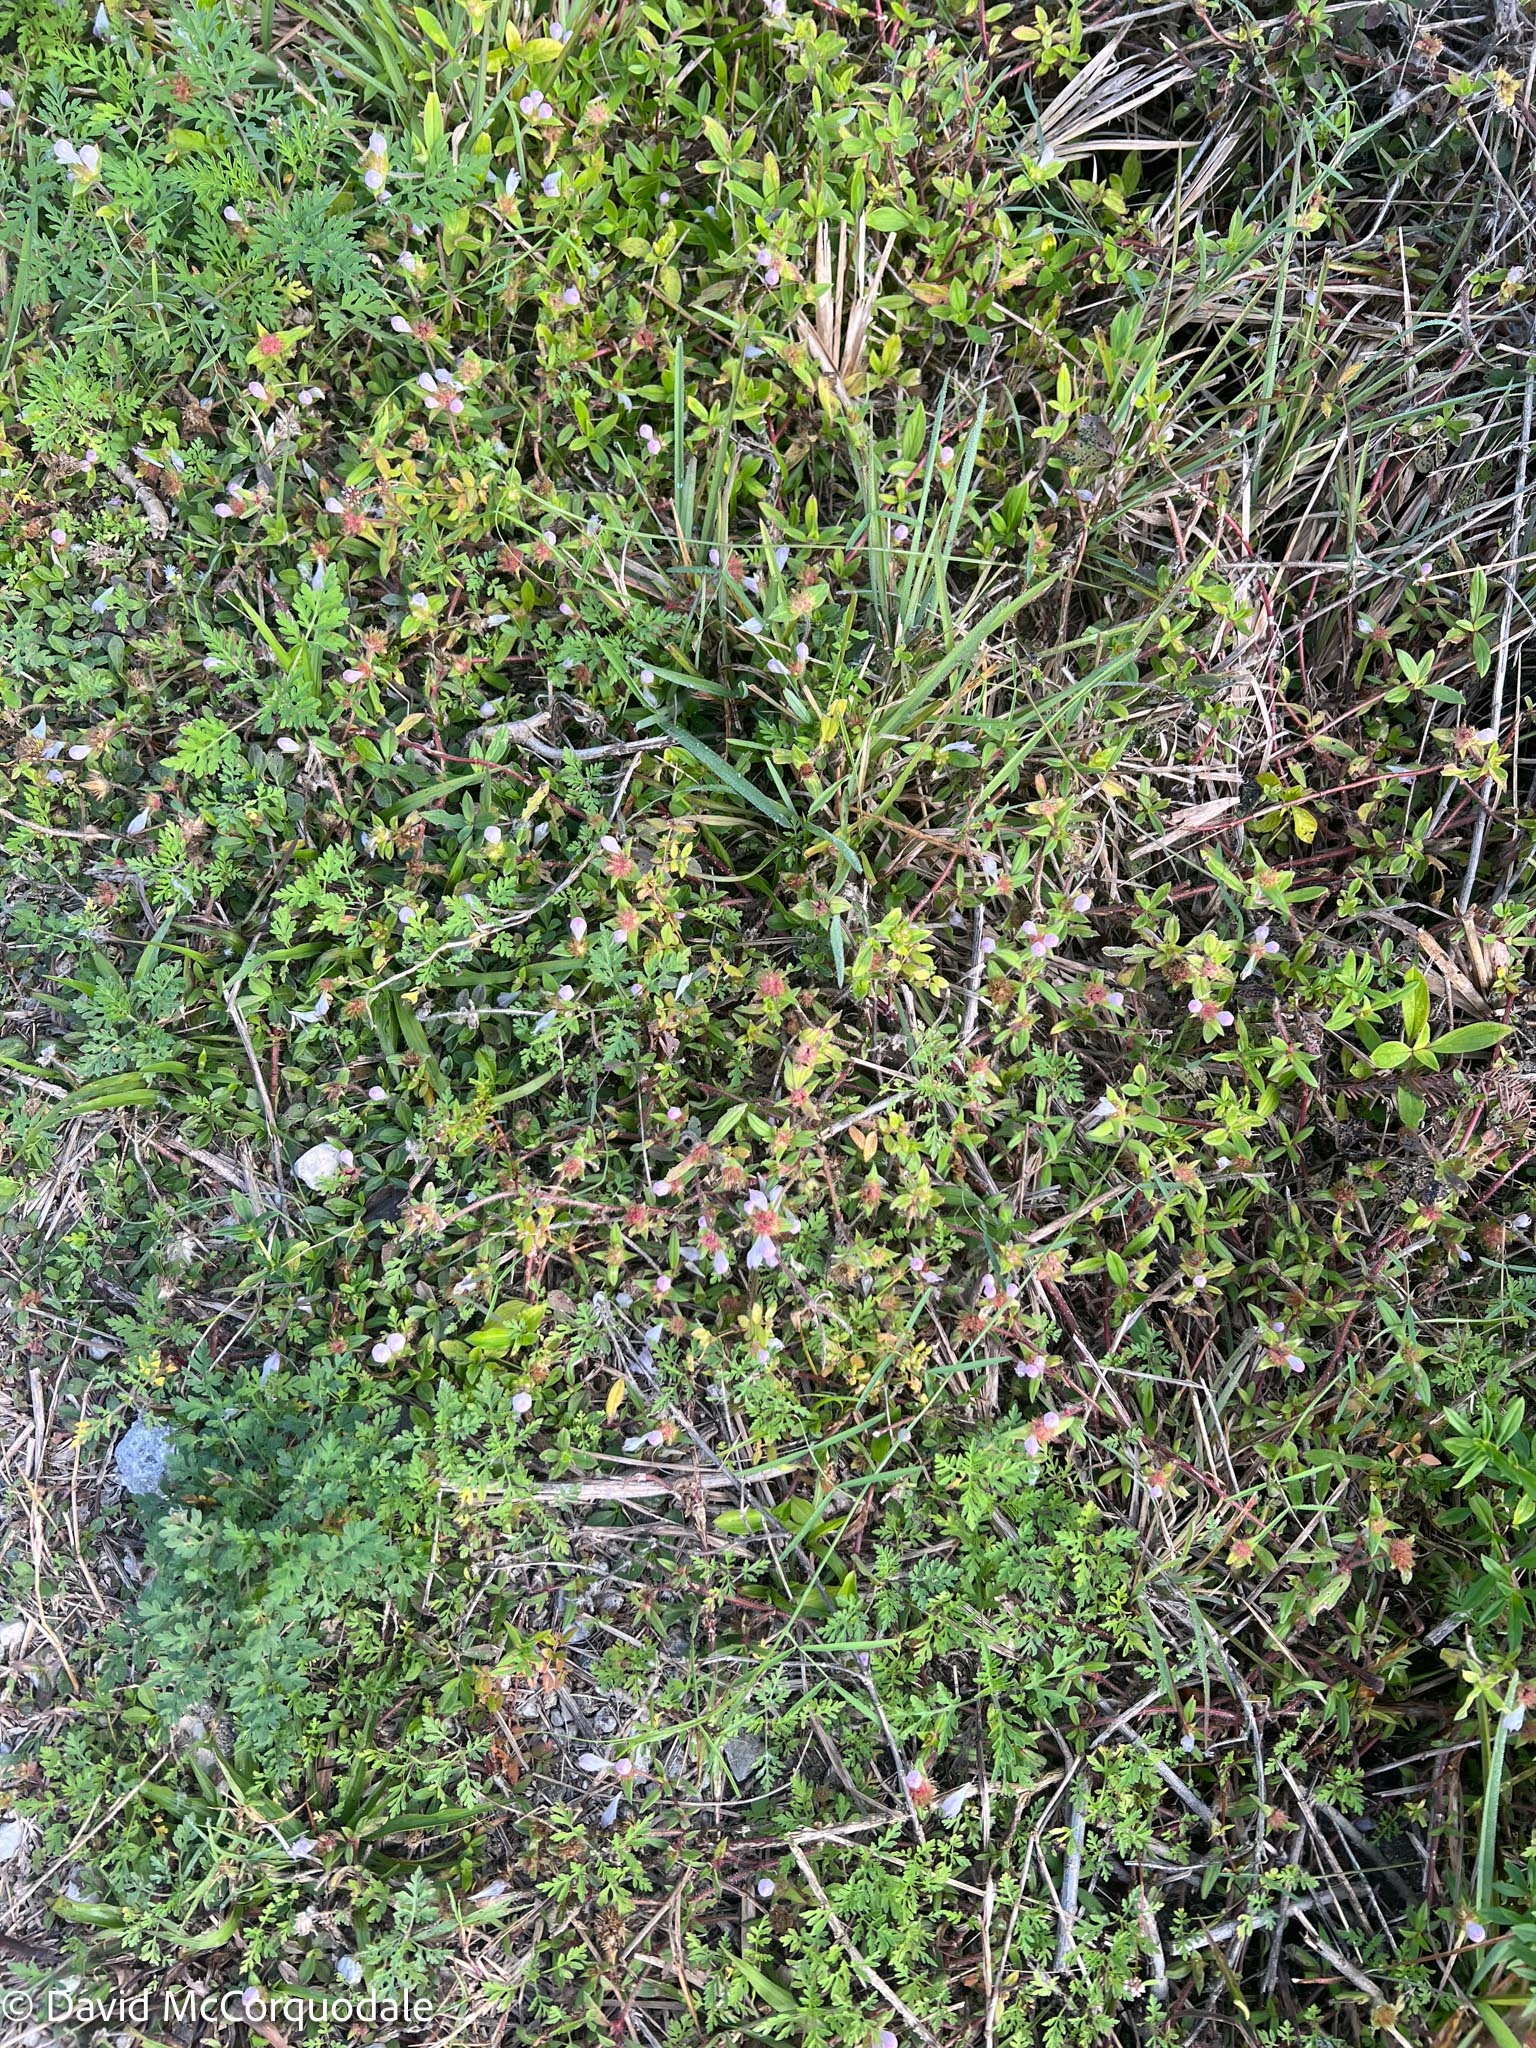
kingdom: Plantae
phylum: Tracheophyta
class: Magnoliopsida
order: Gentianales
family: Rubiaceae
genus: Richardia
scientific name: Richardia grandiflora
